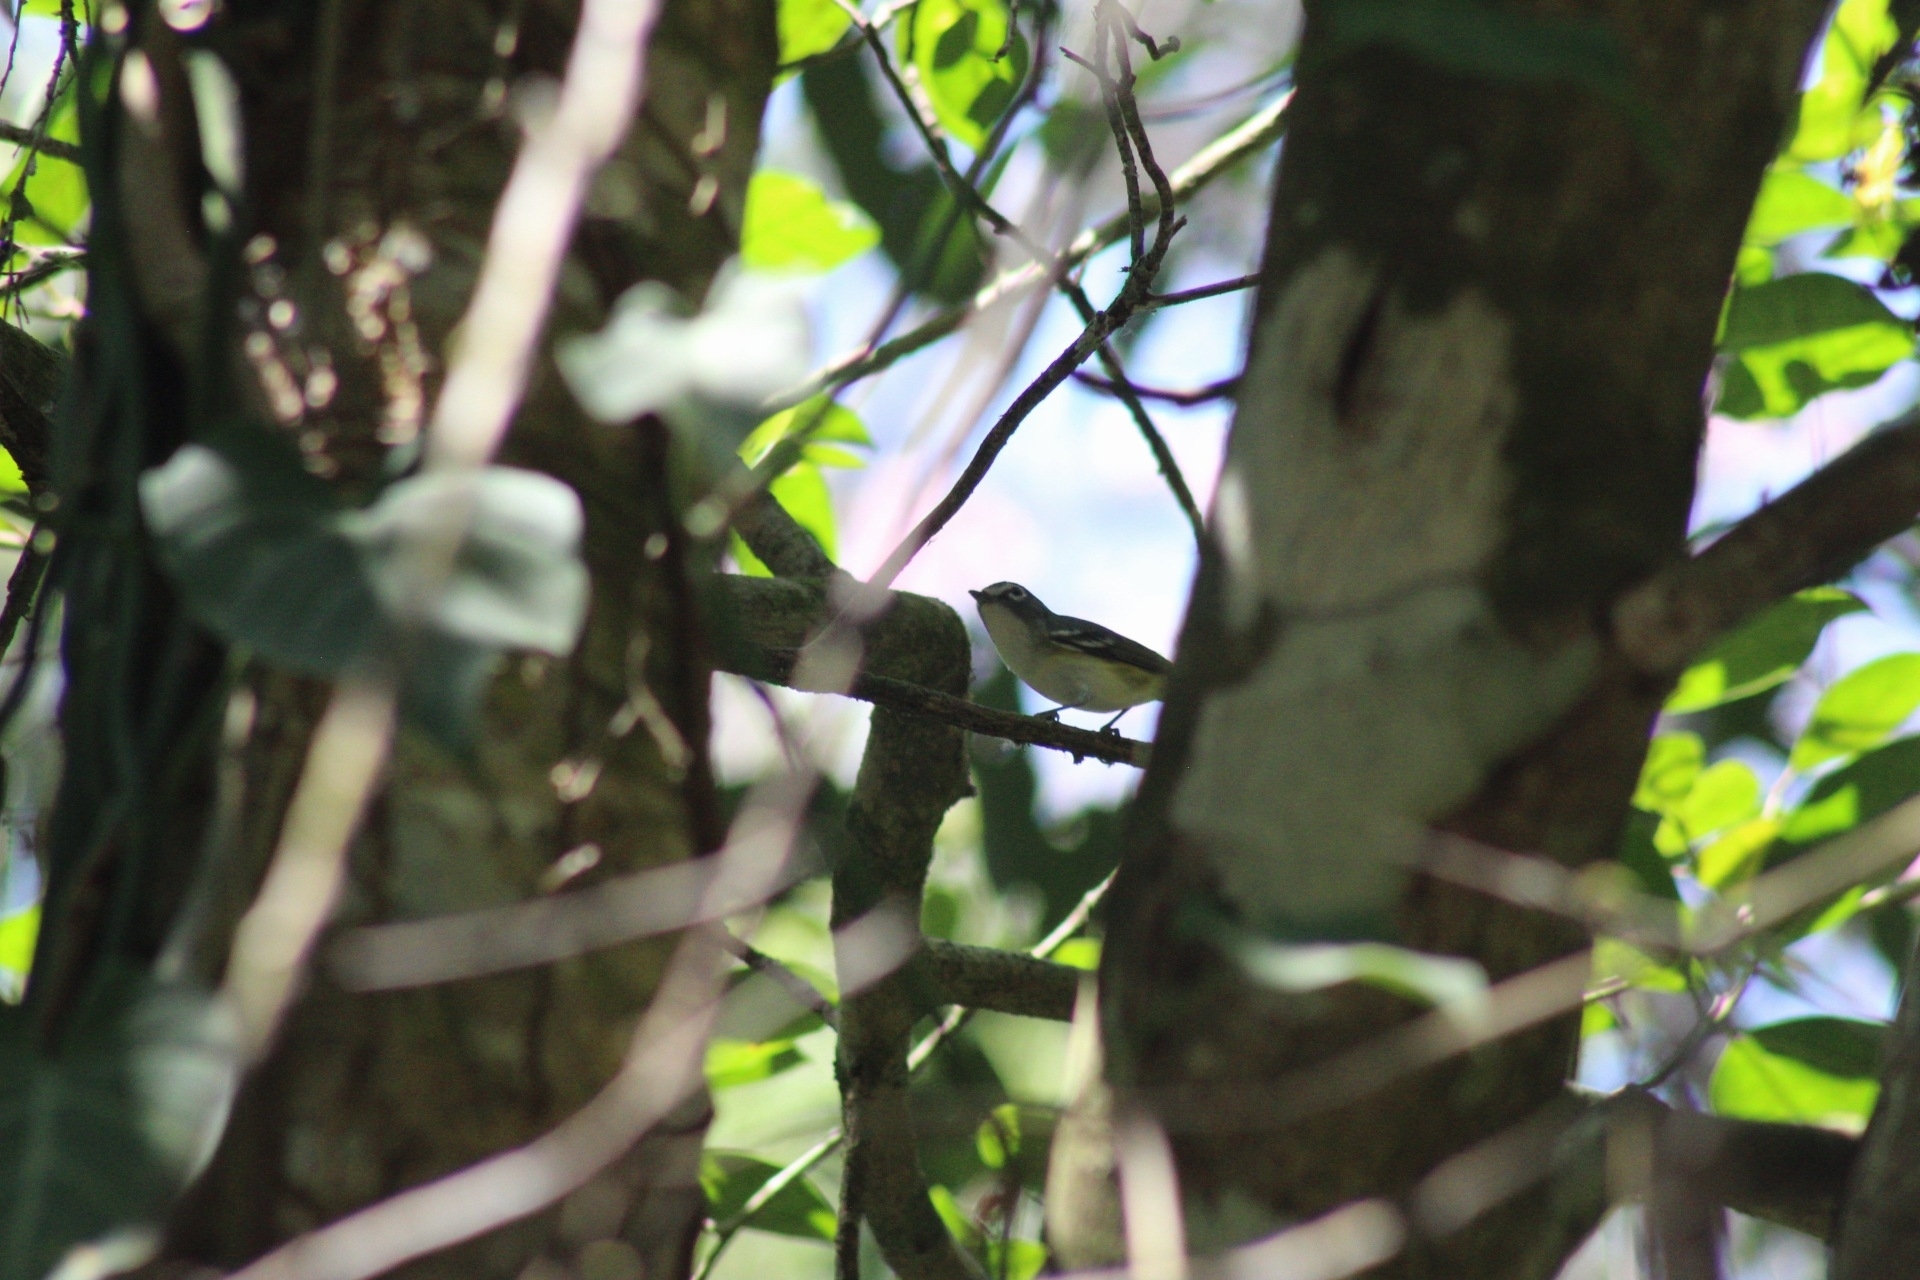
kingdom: Animalia
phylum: Chordata
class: Aves
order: Passeriformes
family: Vireonidae
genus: Vireo
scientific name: Vireo solitarius
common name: Blue-headed vireo
